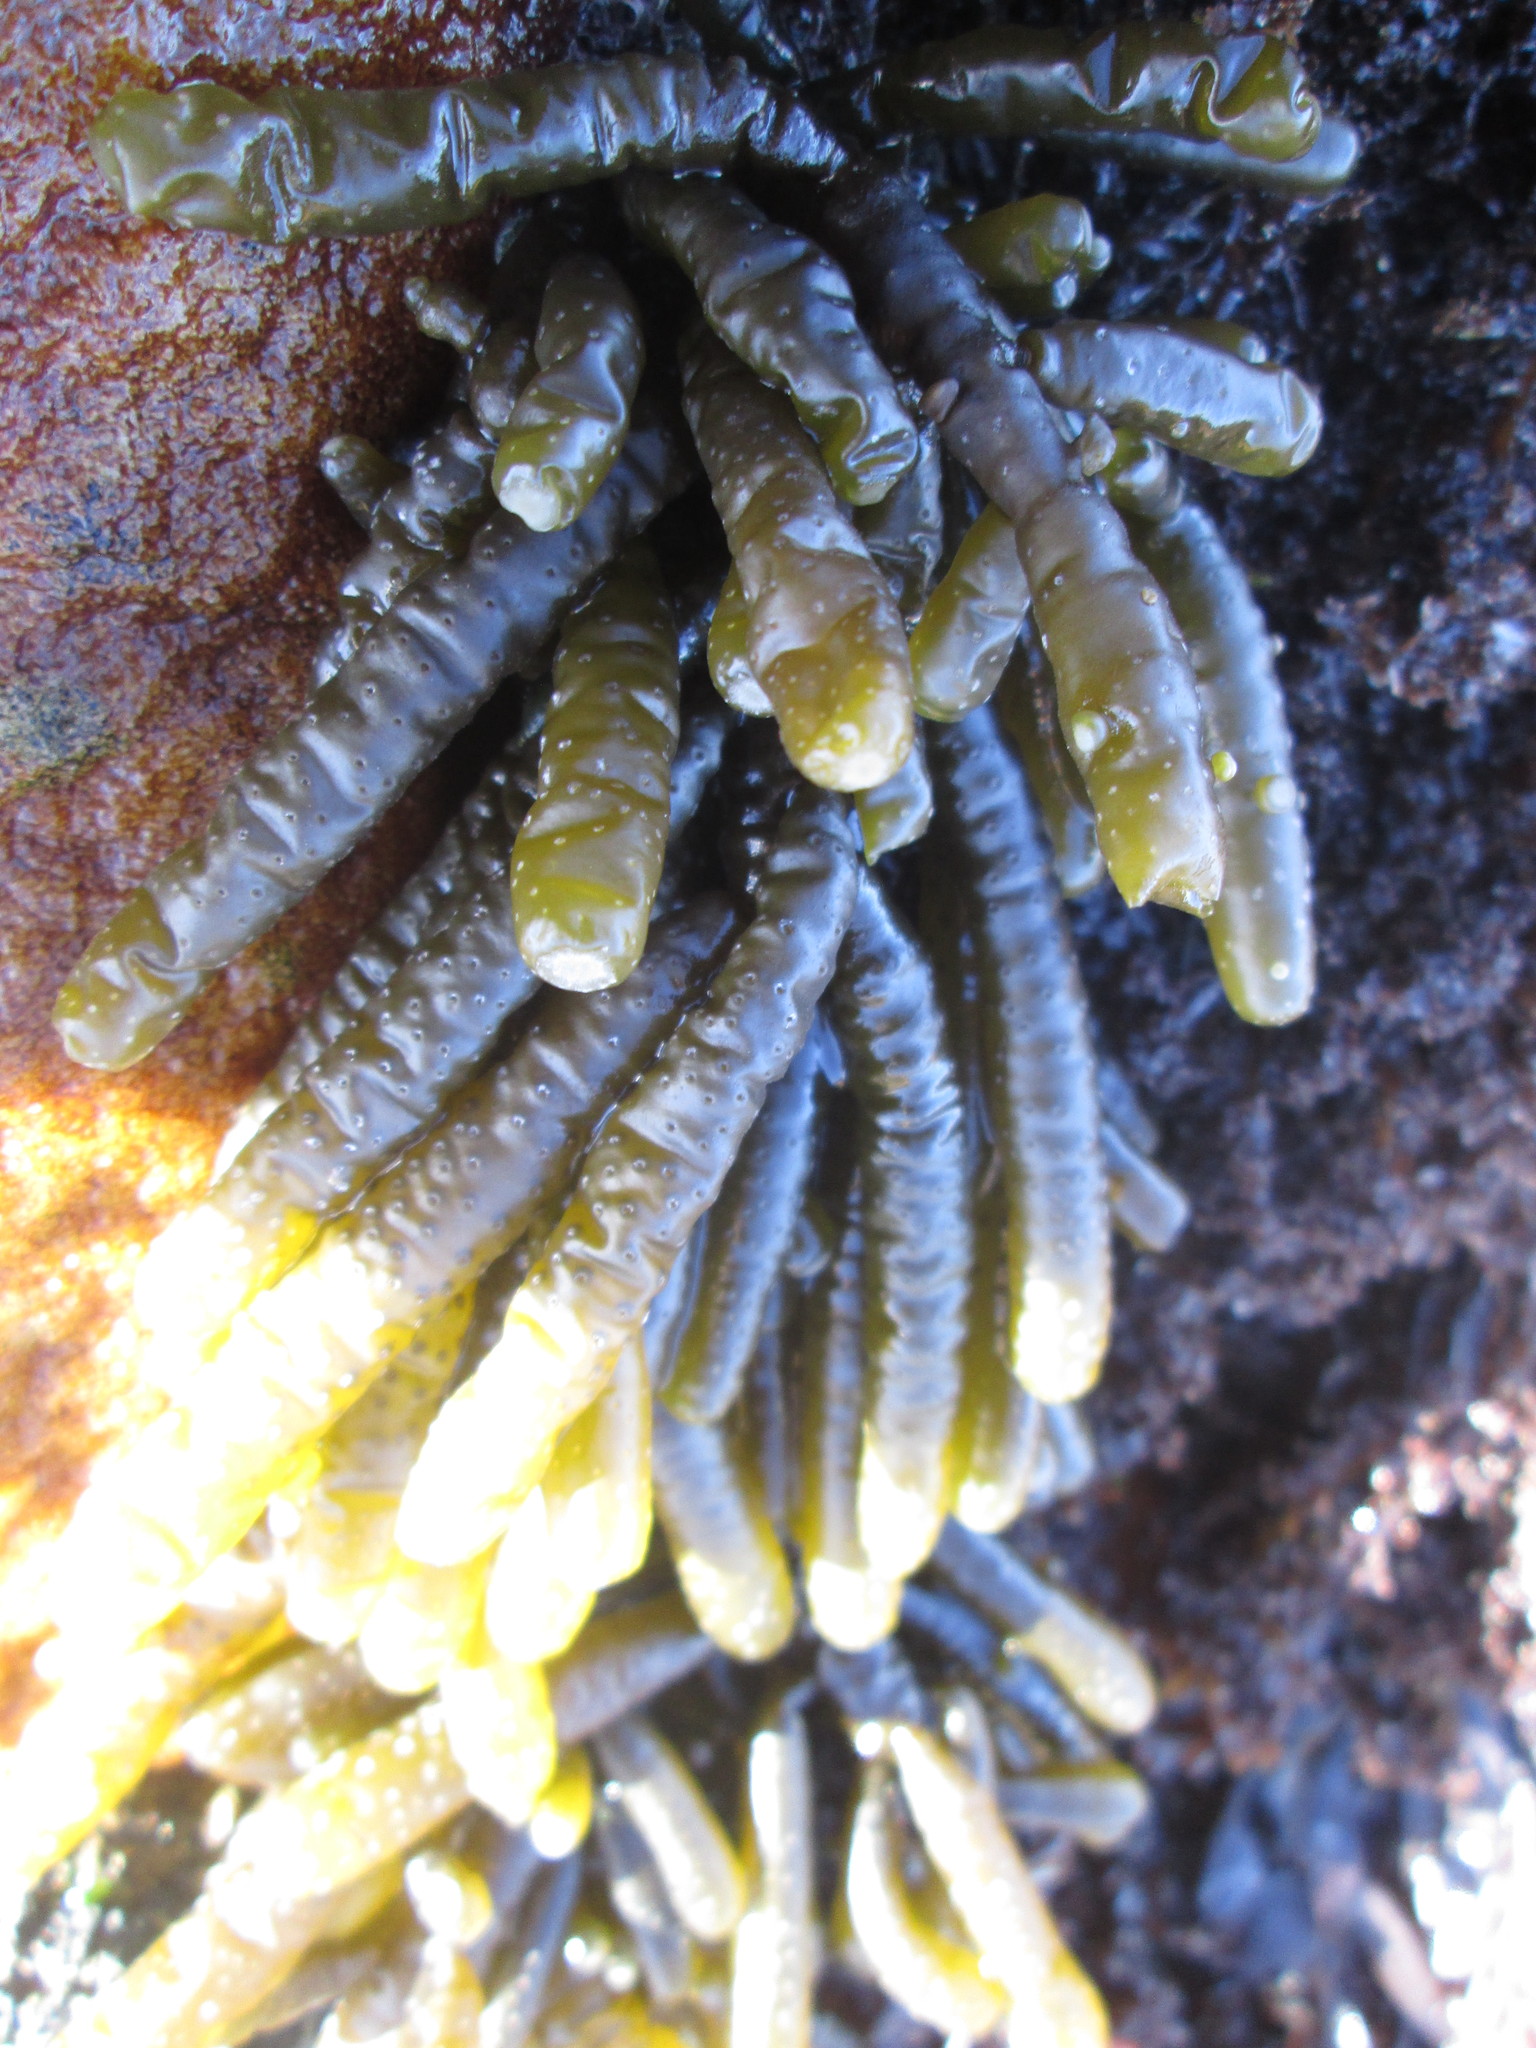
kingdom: Chromista
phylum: Ochrophyta
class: Phaeophyceae
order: Scytothamnales
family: Splachnidiaceae
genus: Splachnidium
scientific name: Splachnidium rugosum
